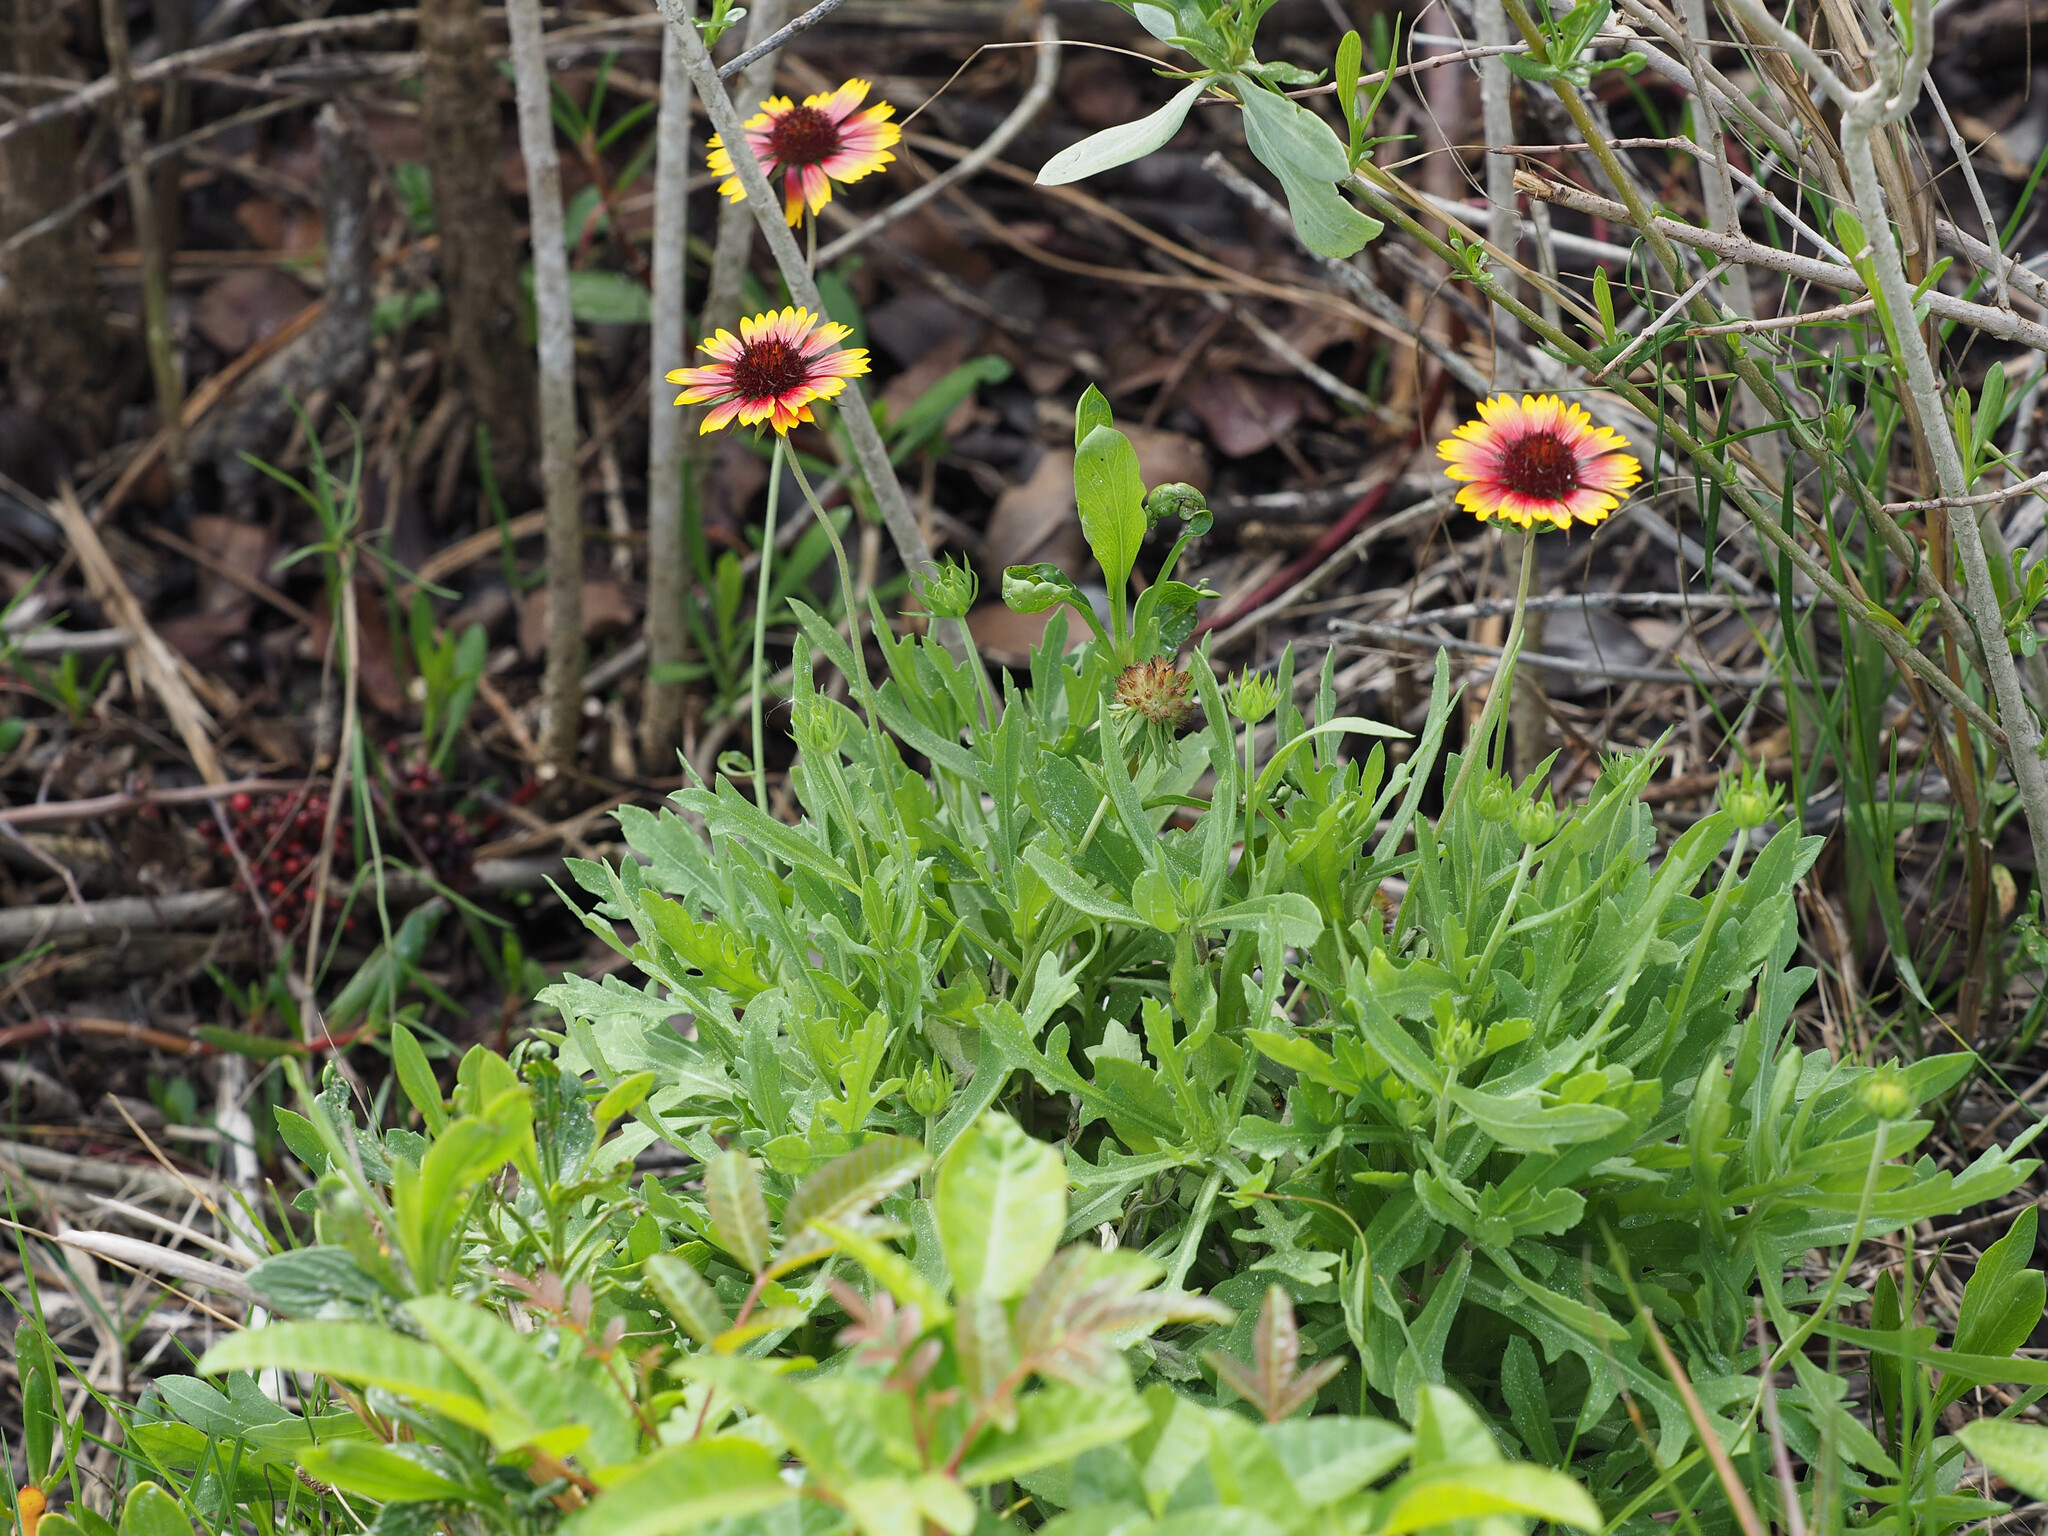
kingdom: Plantae
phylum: Tracheophyta
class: Magnoliopsida
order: Asterales
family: Asteraceae
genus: Gaillardia
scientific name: Gaillardia pulchella
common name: Firewheel
